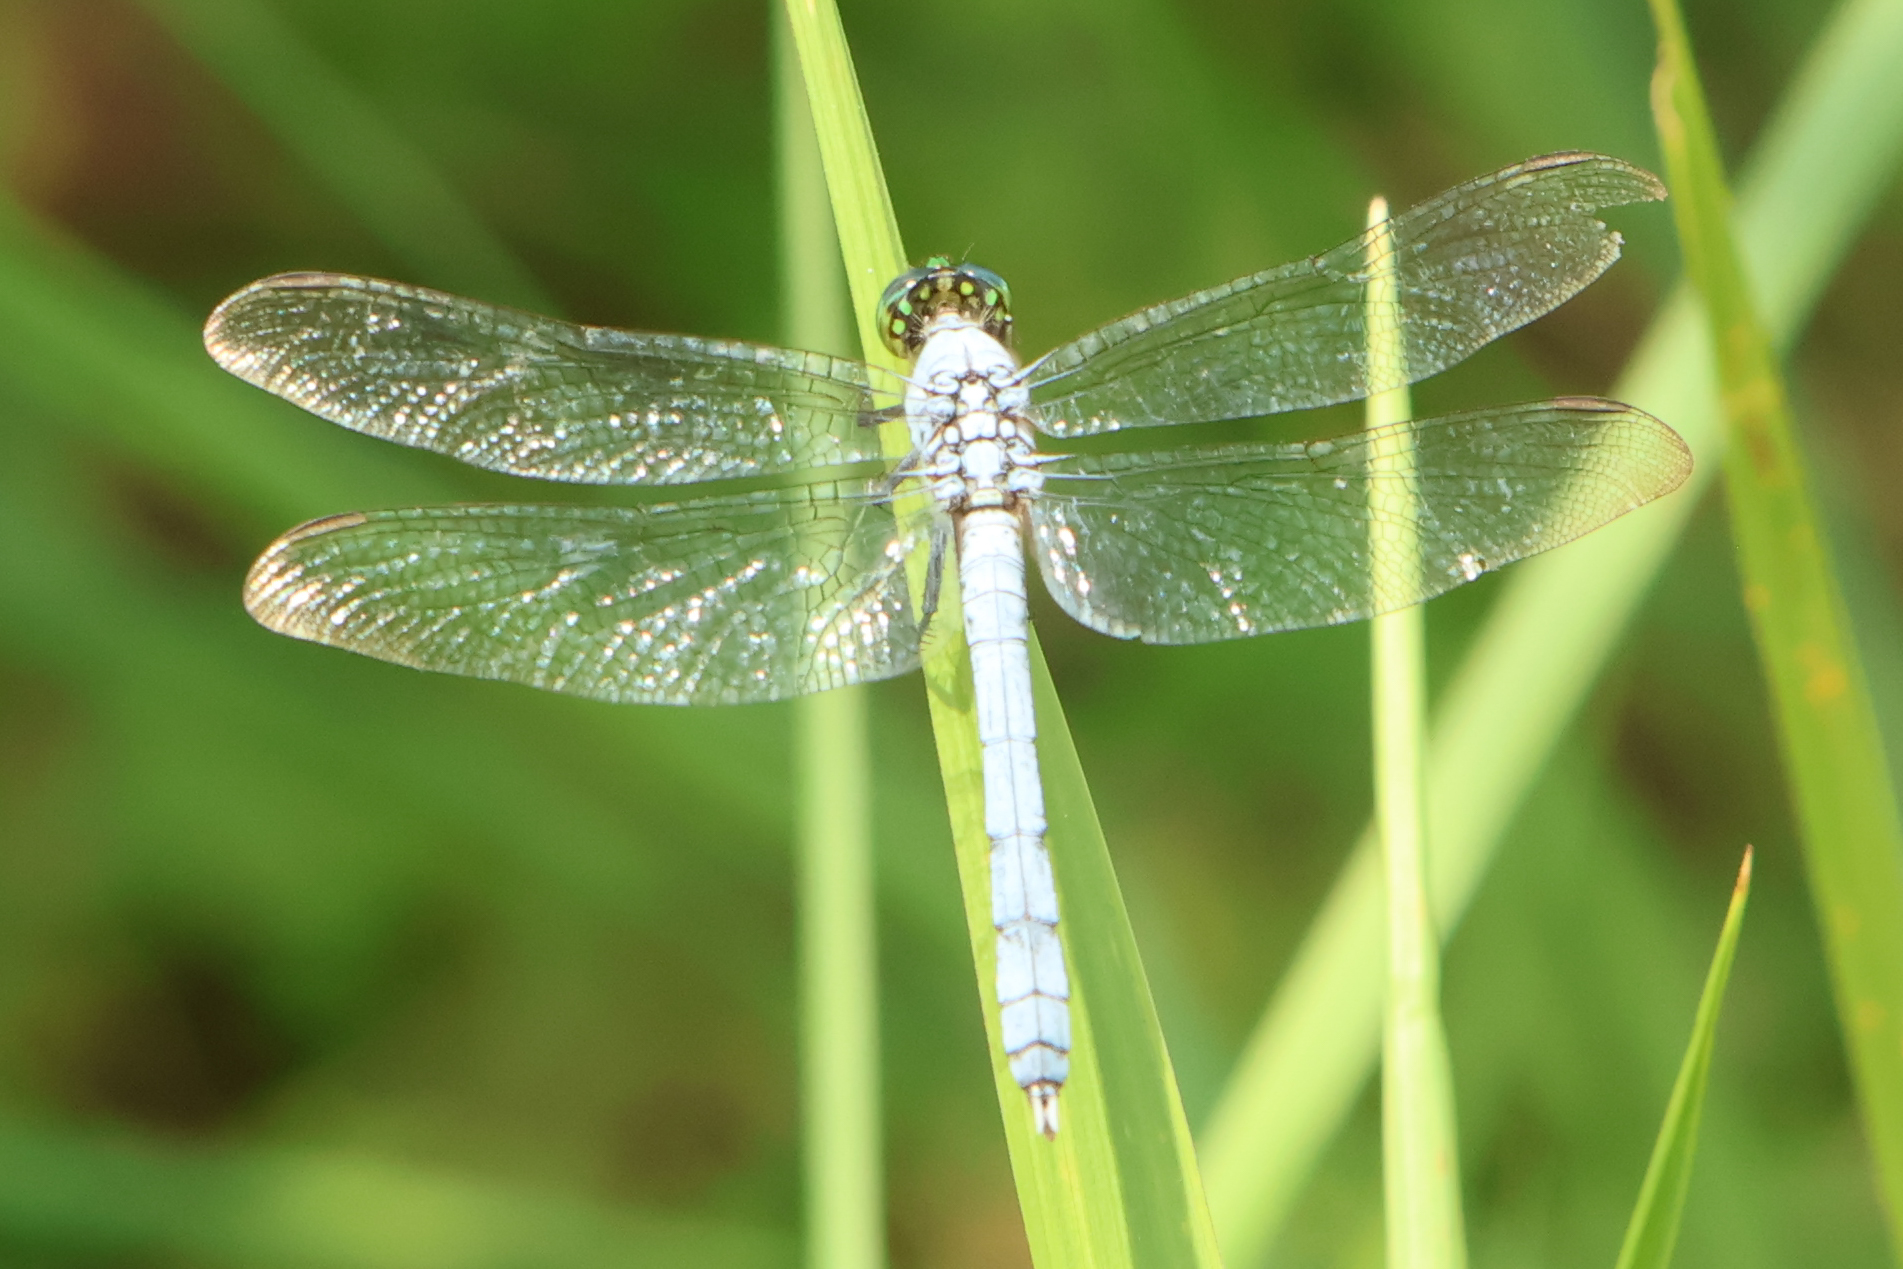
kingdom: Animalia
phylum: Arthropoda
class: Insecta
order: Odonata
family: Libellulidae
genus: Erythemis
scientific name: Erythemis simplicicollis
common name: Eastern pondhawk
